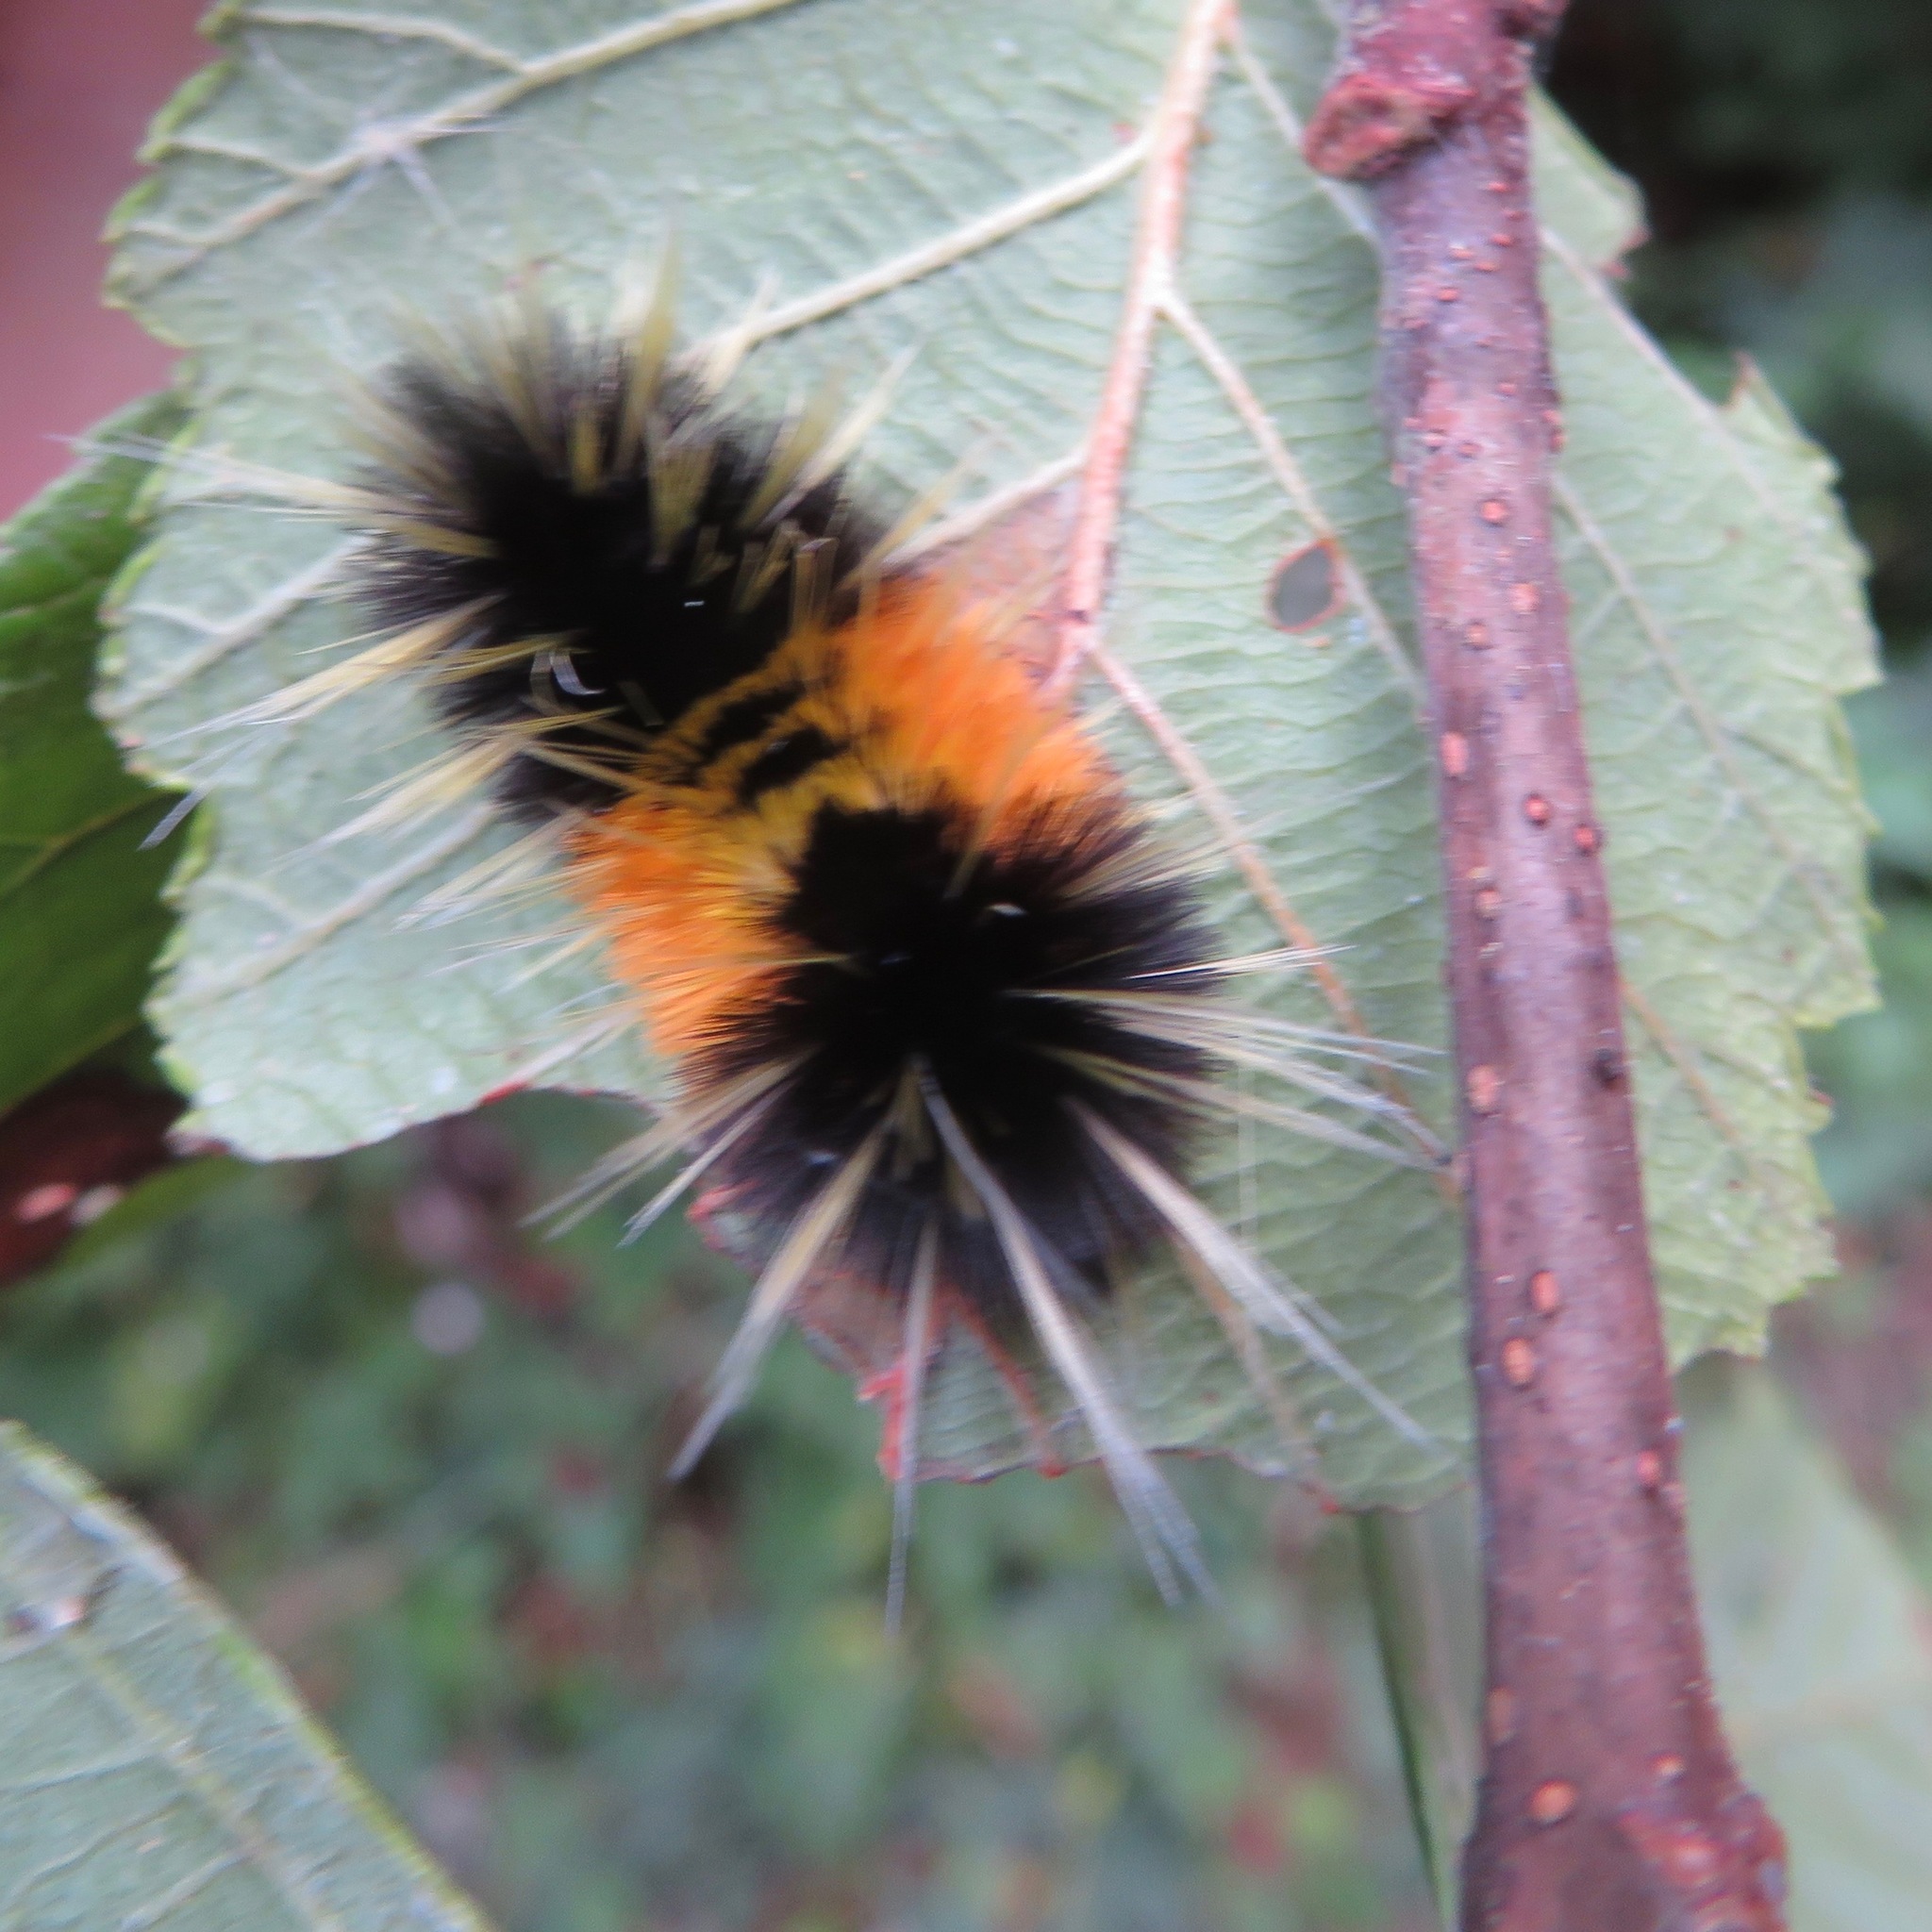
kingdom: Animalia
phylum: Arthropoda
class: Insecta
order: Lepidoptera
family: Erebidae
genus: Lophocampa
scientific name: Lophocampa maculata
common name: Spotted tussock moth
